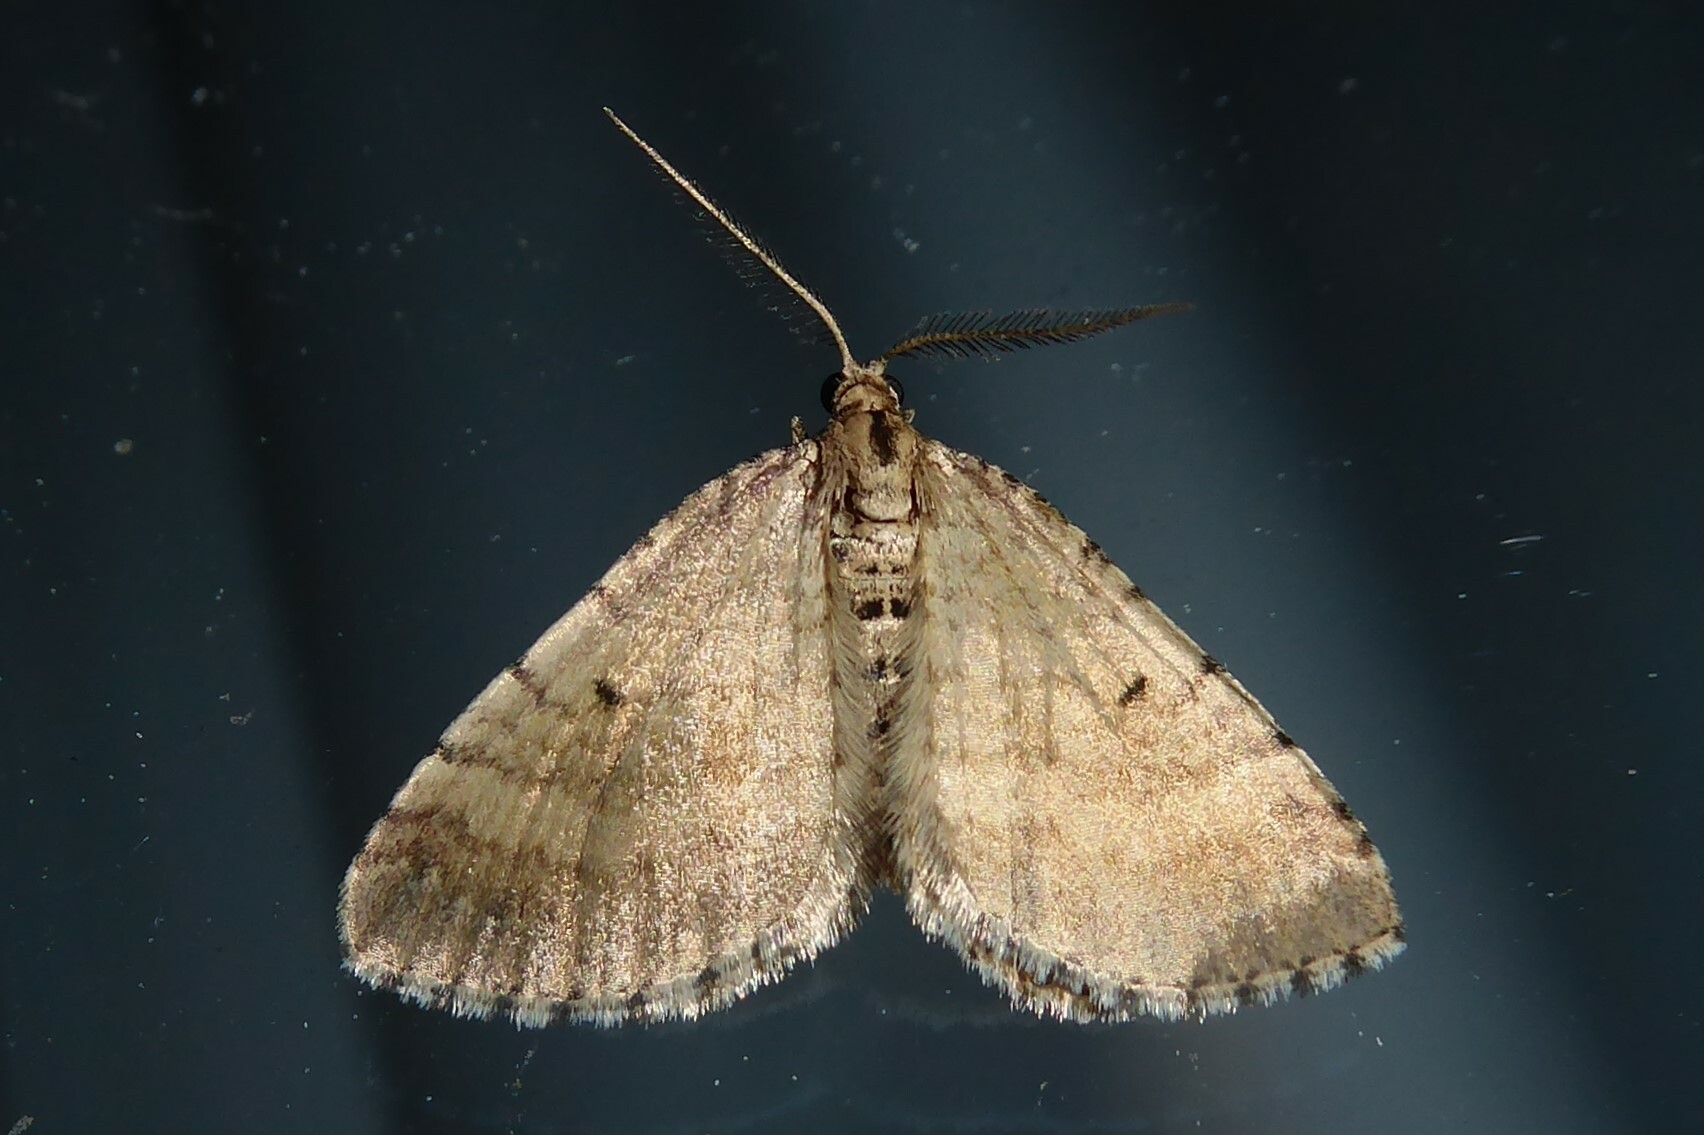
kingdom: Animalia
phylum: Arthropoda
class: Insecta
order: Lepidoptera
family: Geometridae
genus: Asaphodes
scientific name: Asaphodes aegrota
